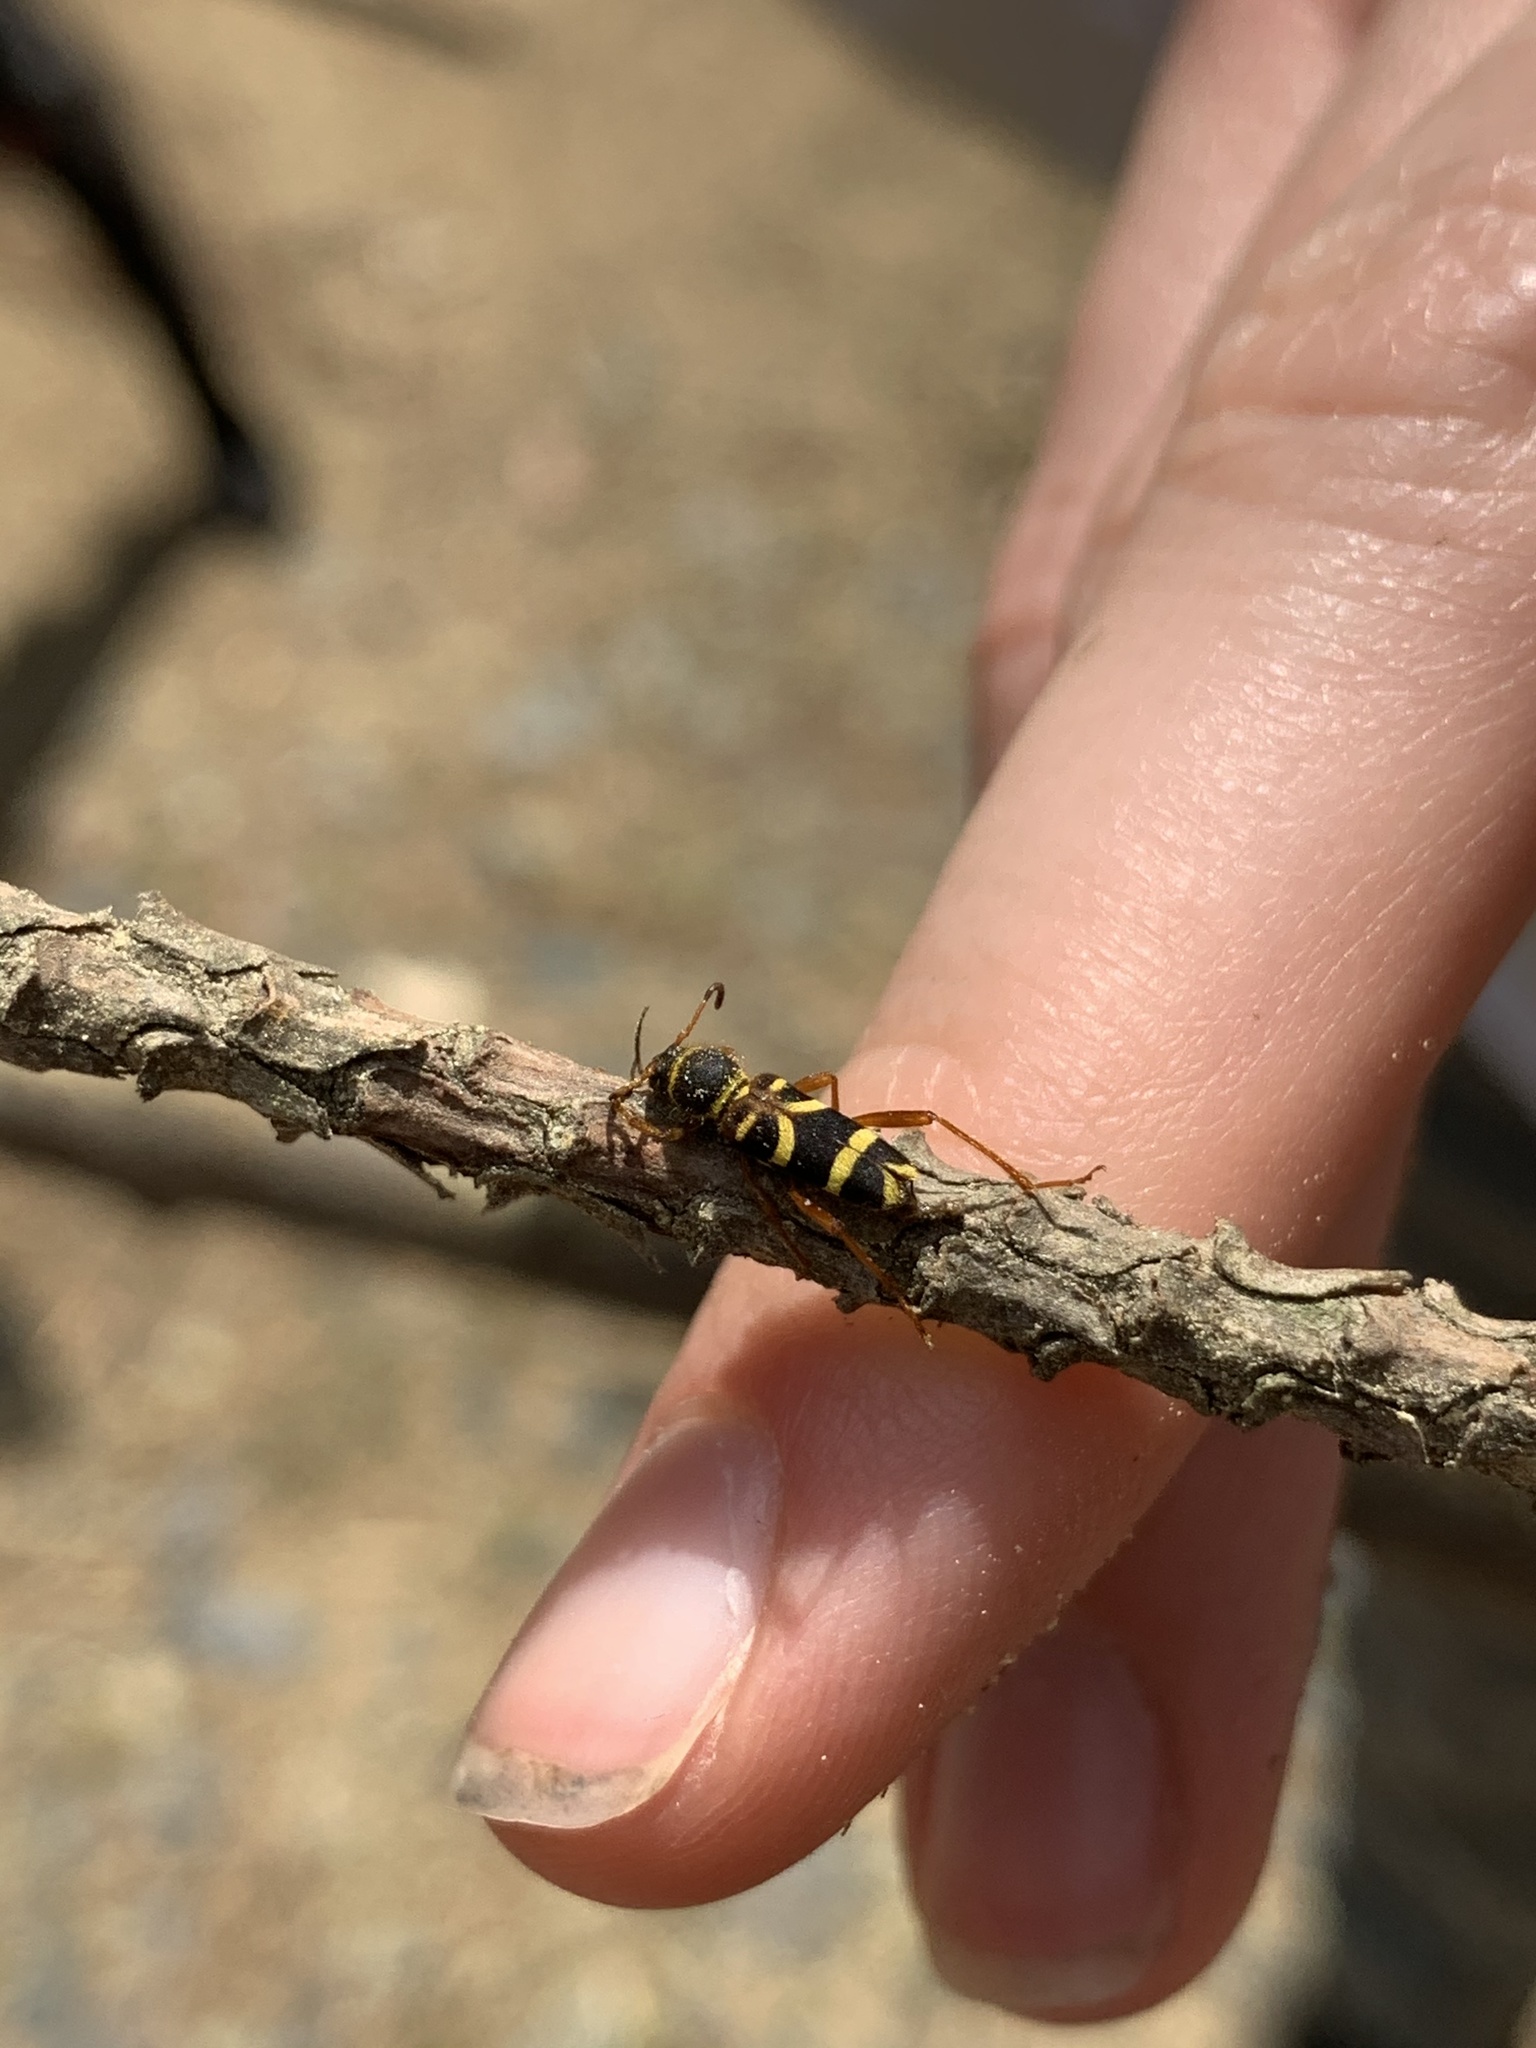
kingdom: Animalia
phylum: Arthropoda
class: Insecta
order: Coleoptera
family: Cerambycidae
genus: Clytus
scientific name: Clytus marginicollis
